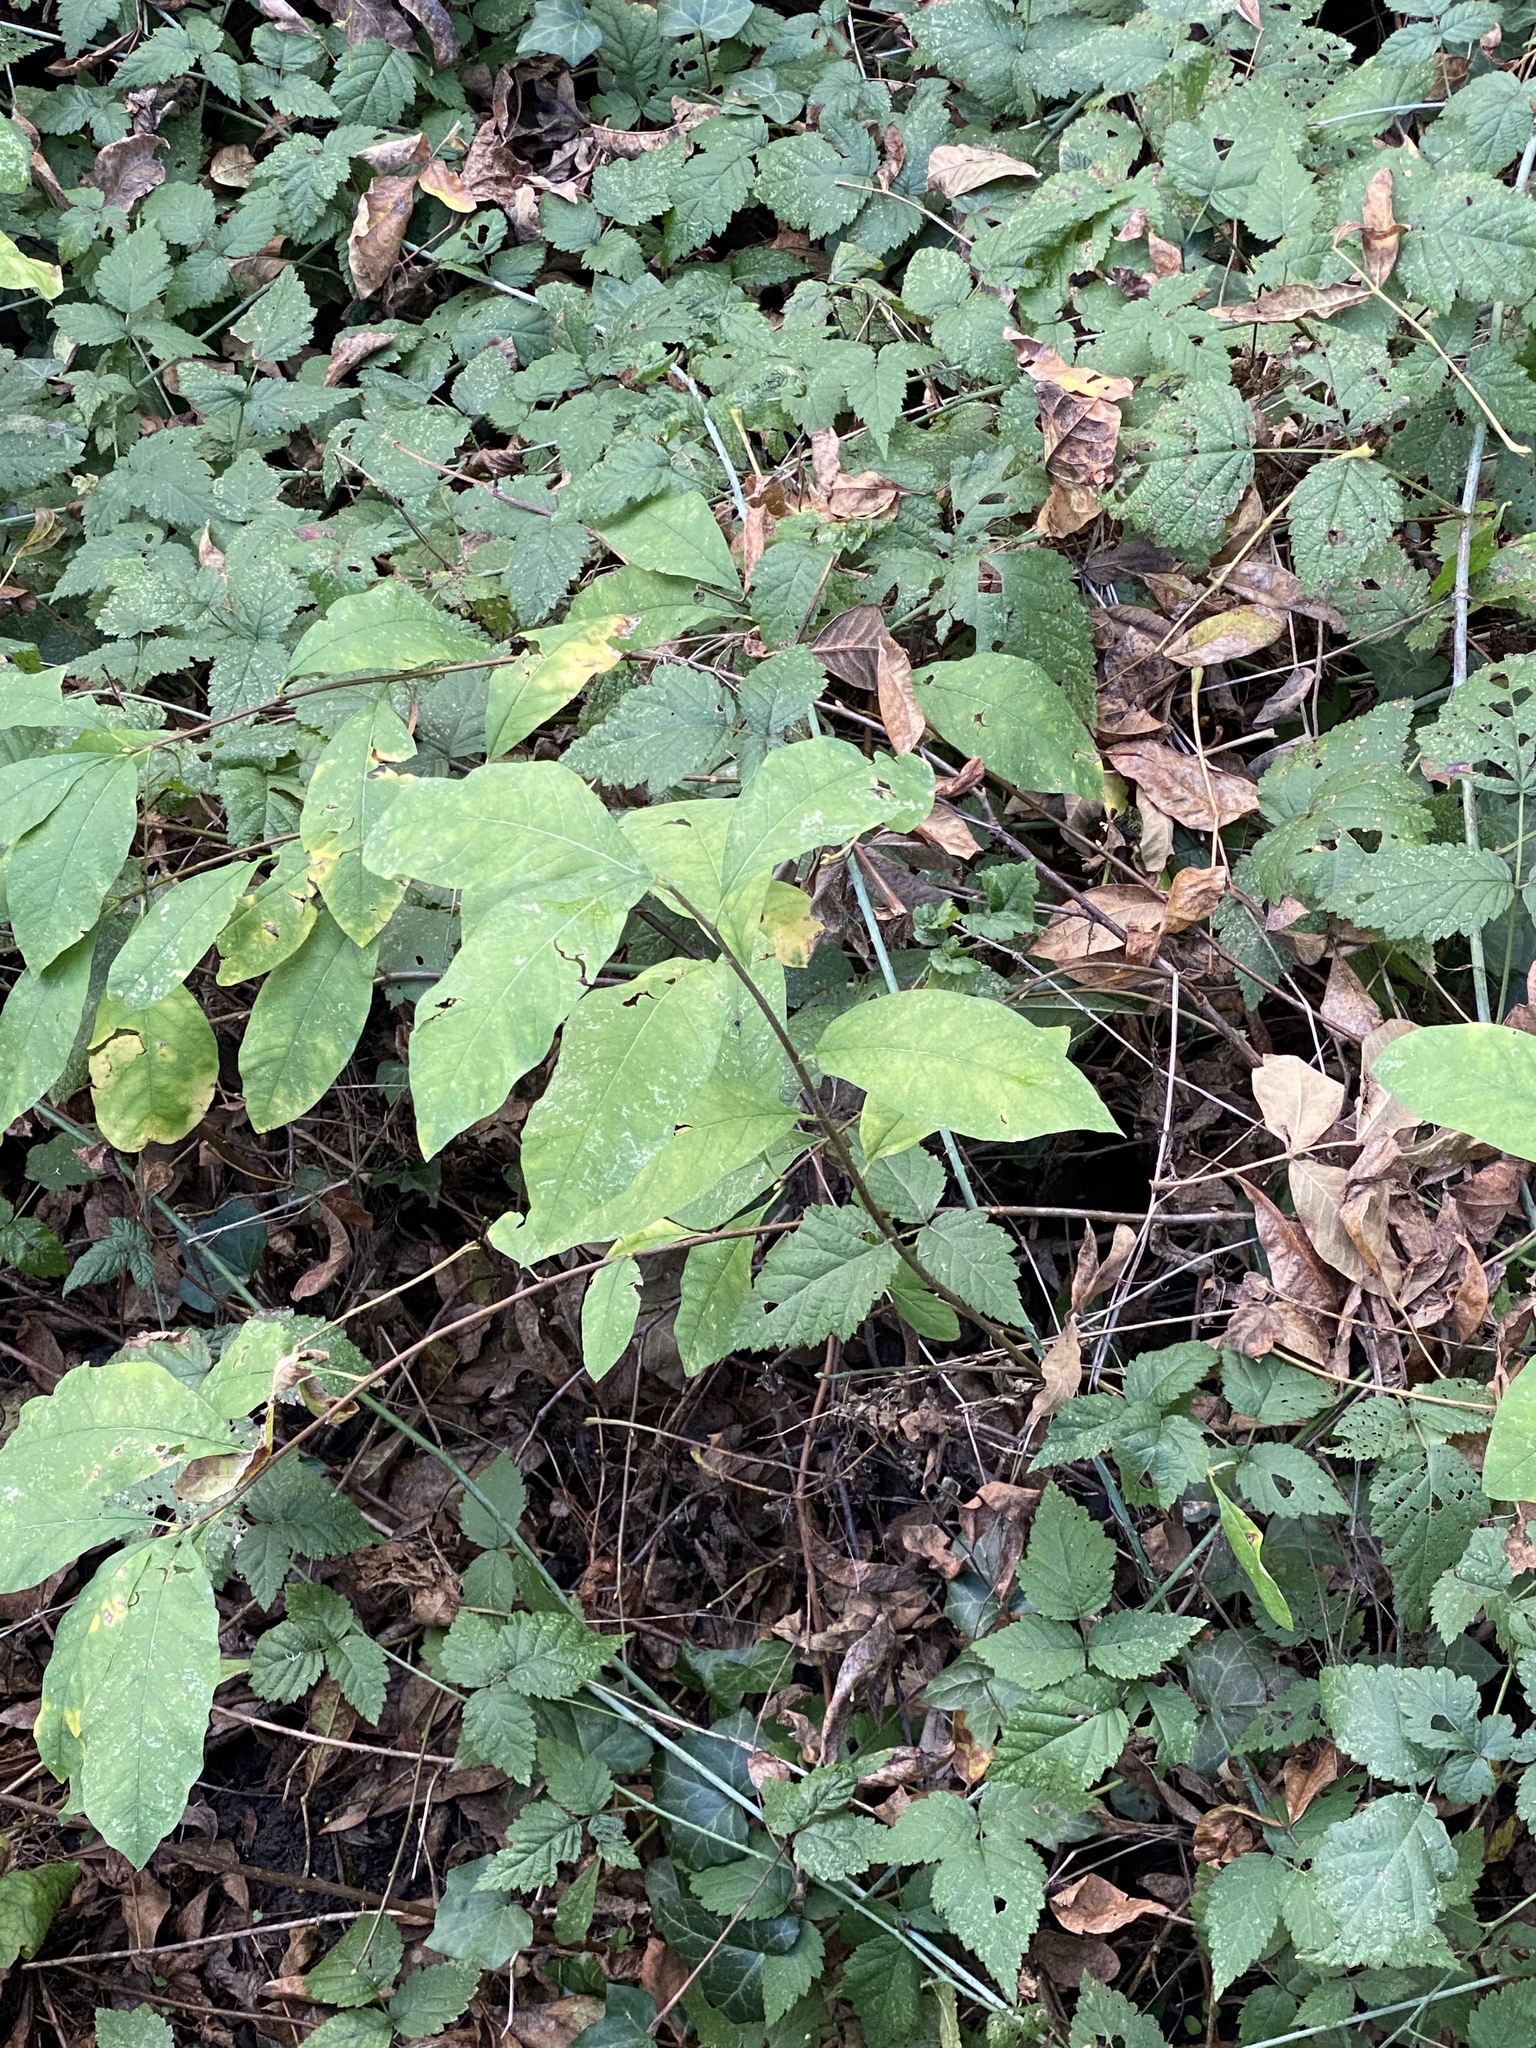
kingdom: Plantae
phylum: Tracheophyta
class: Magnoliopsida
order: Rosales
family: Rosaceae
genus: Oemleria
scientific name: Oemleria cerasiformis
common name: Osoberry
